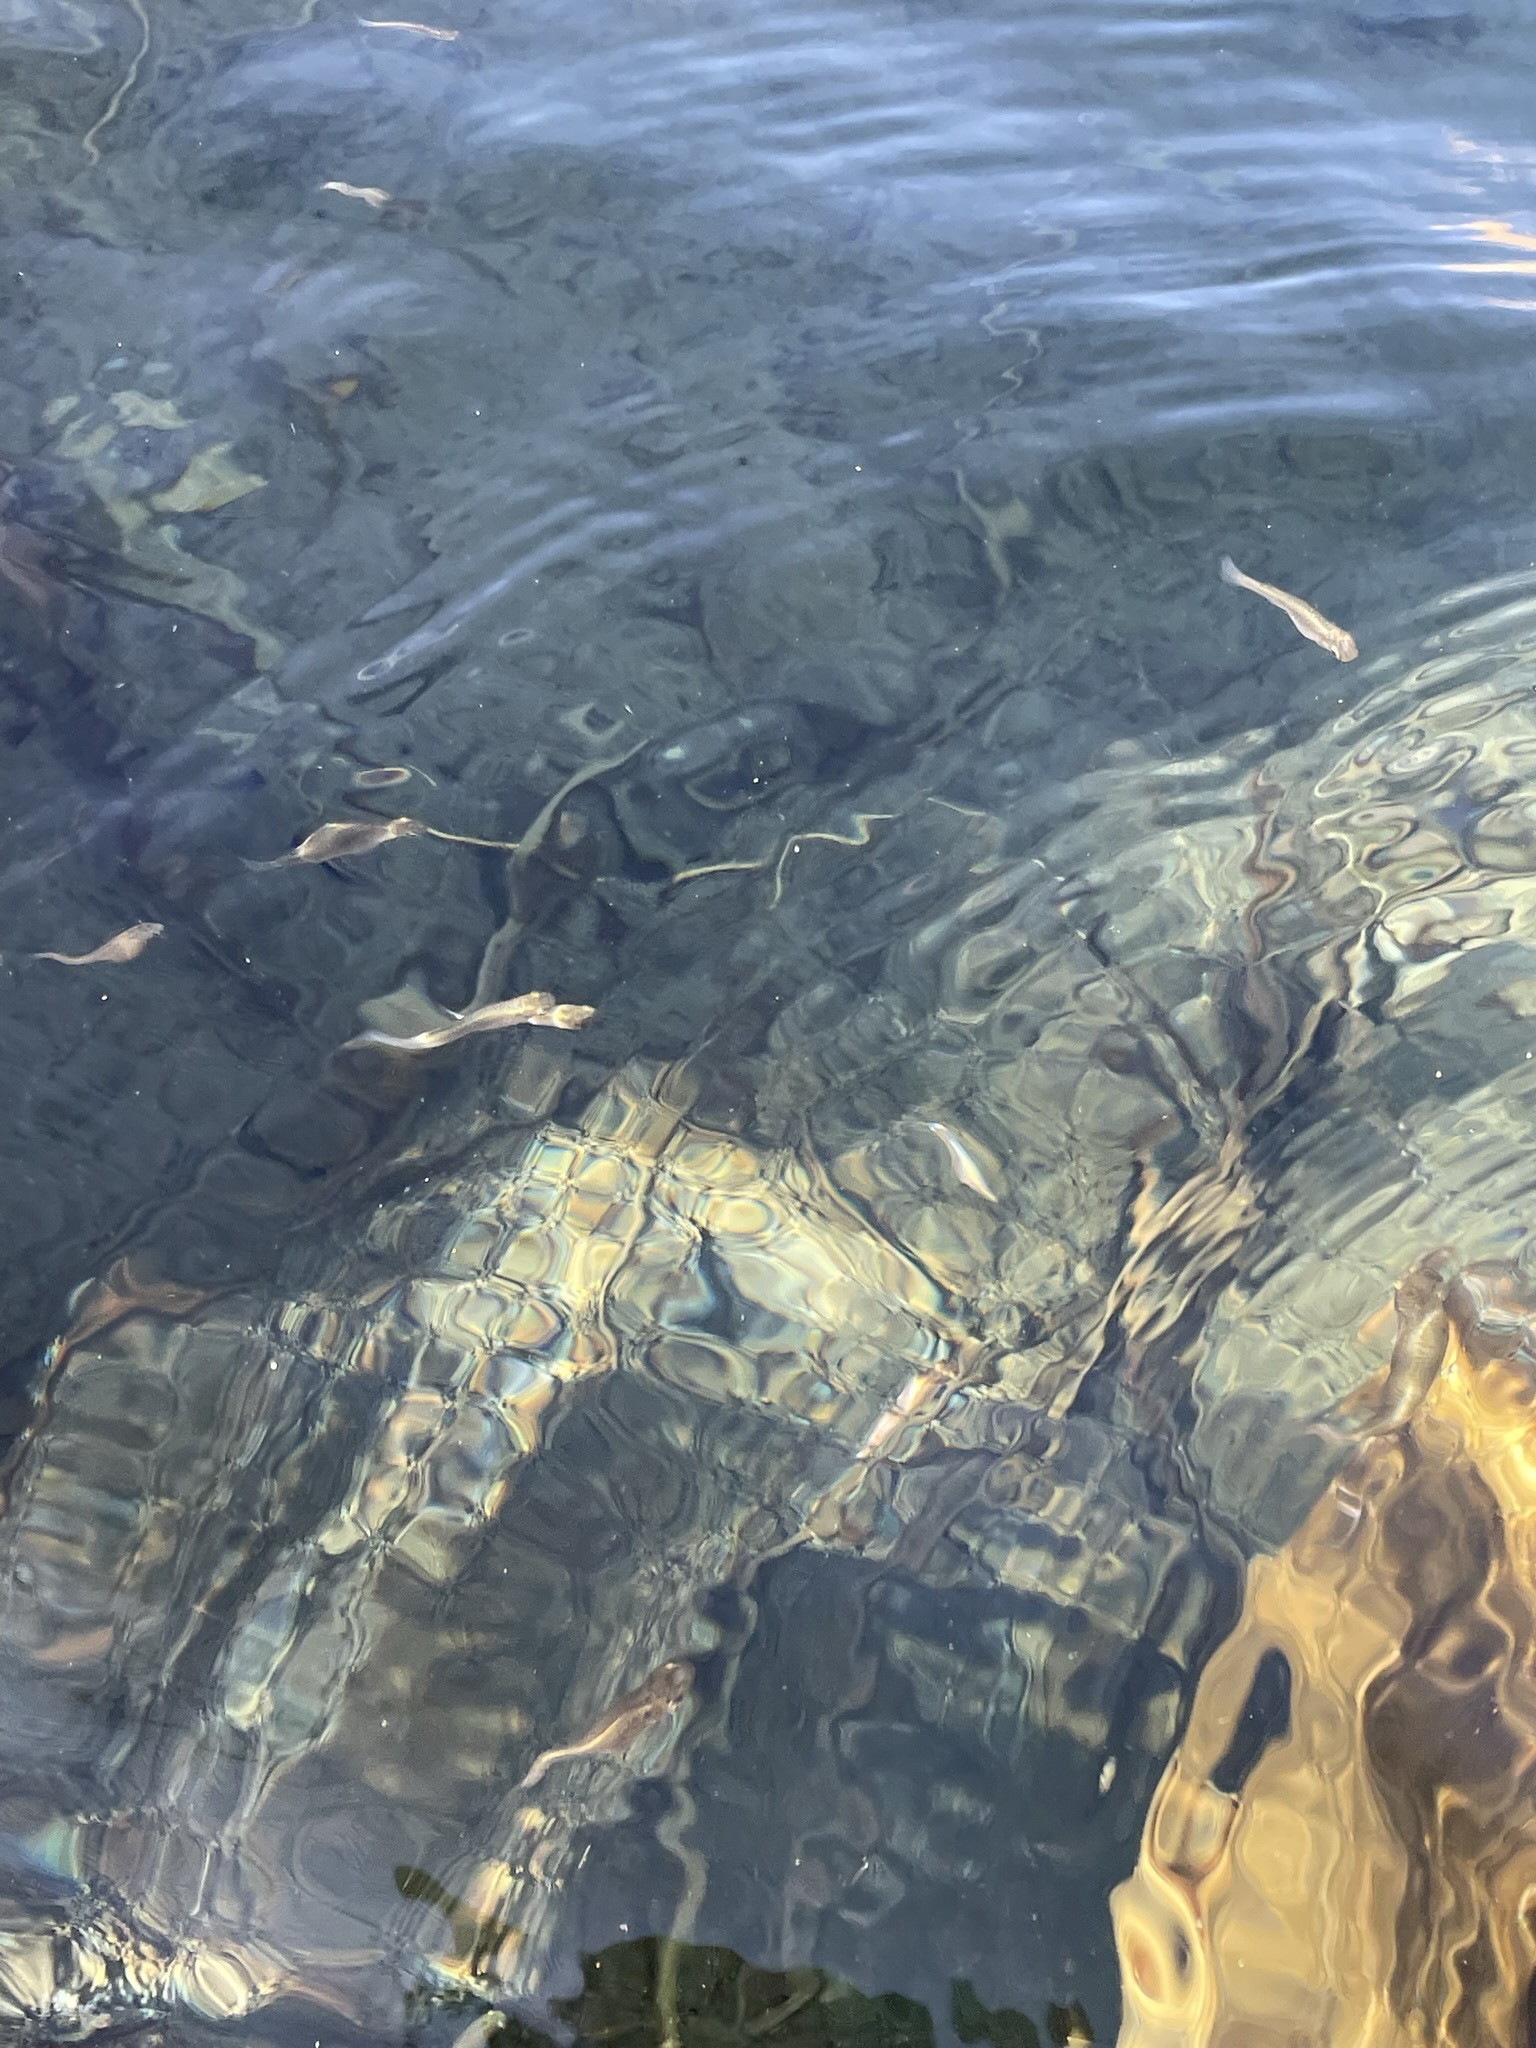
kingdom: Animalia
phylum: Chordata
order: Cyprinodontiformes
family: Poeciliidae
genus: Gambusia
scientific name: Gambusia affinis
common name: Mosquitofish
